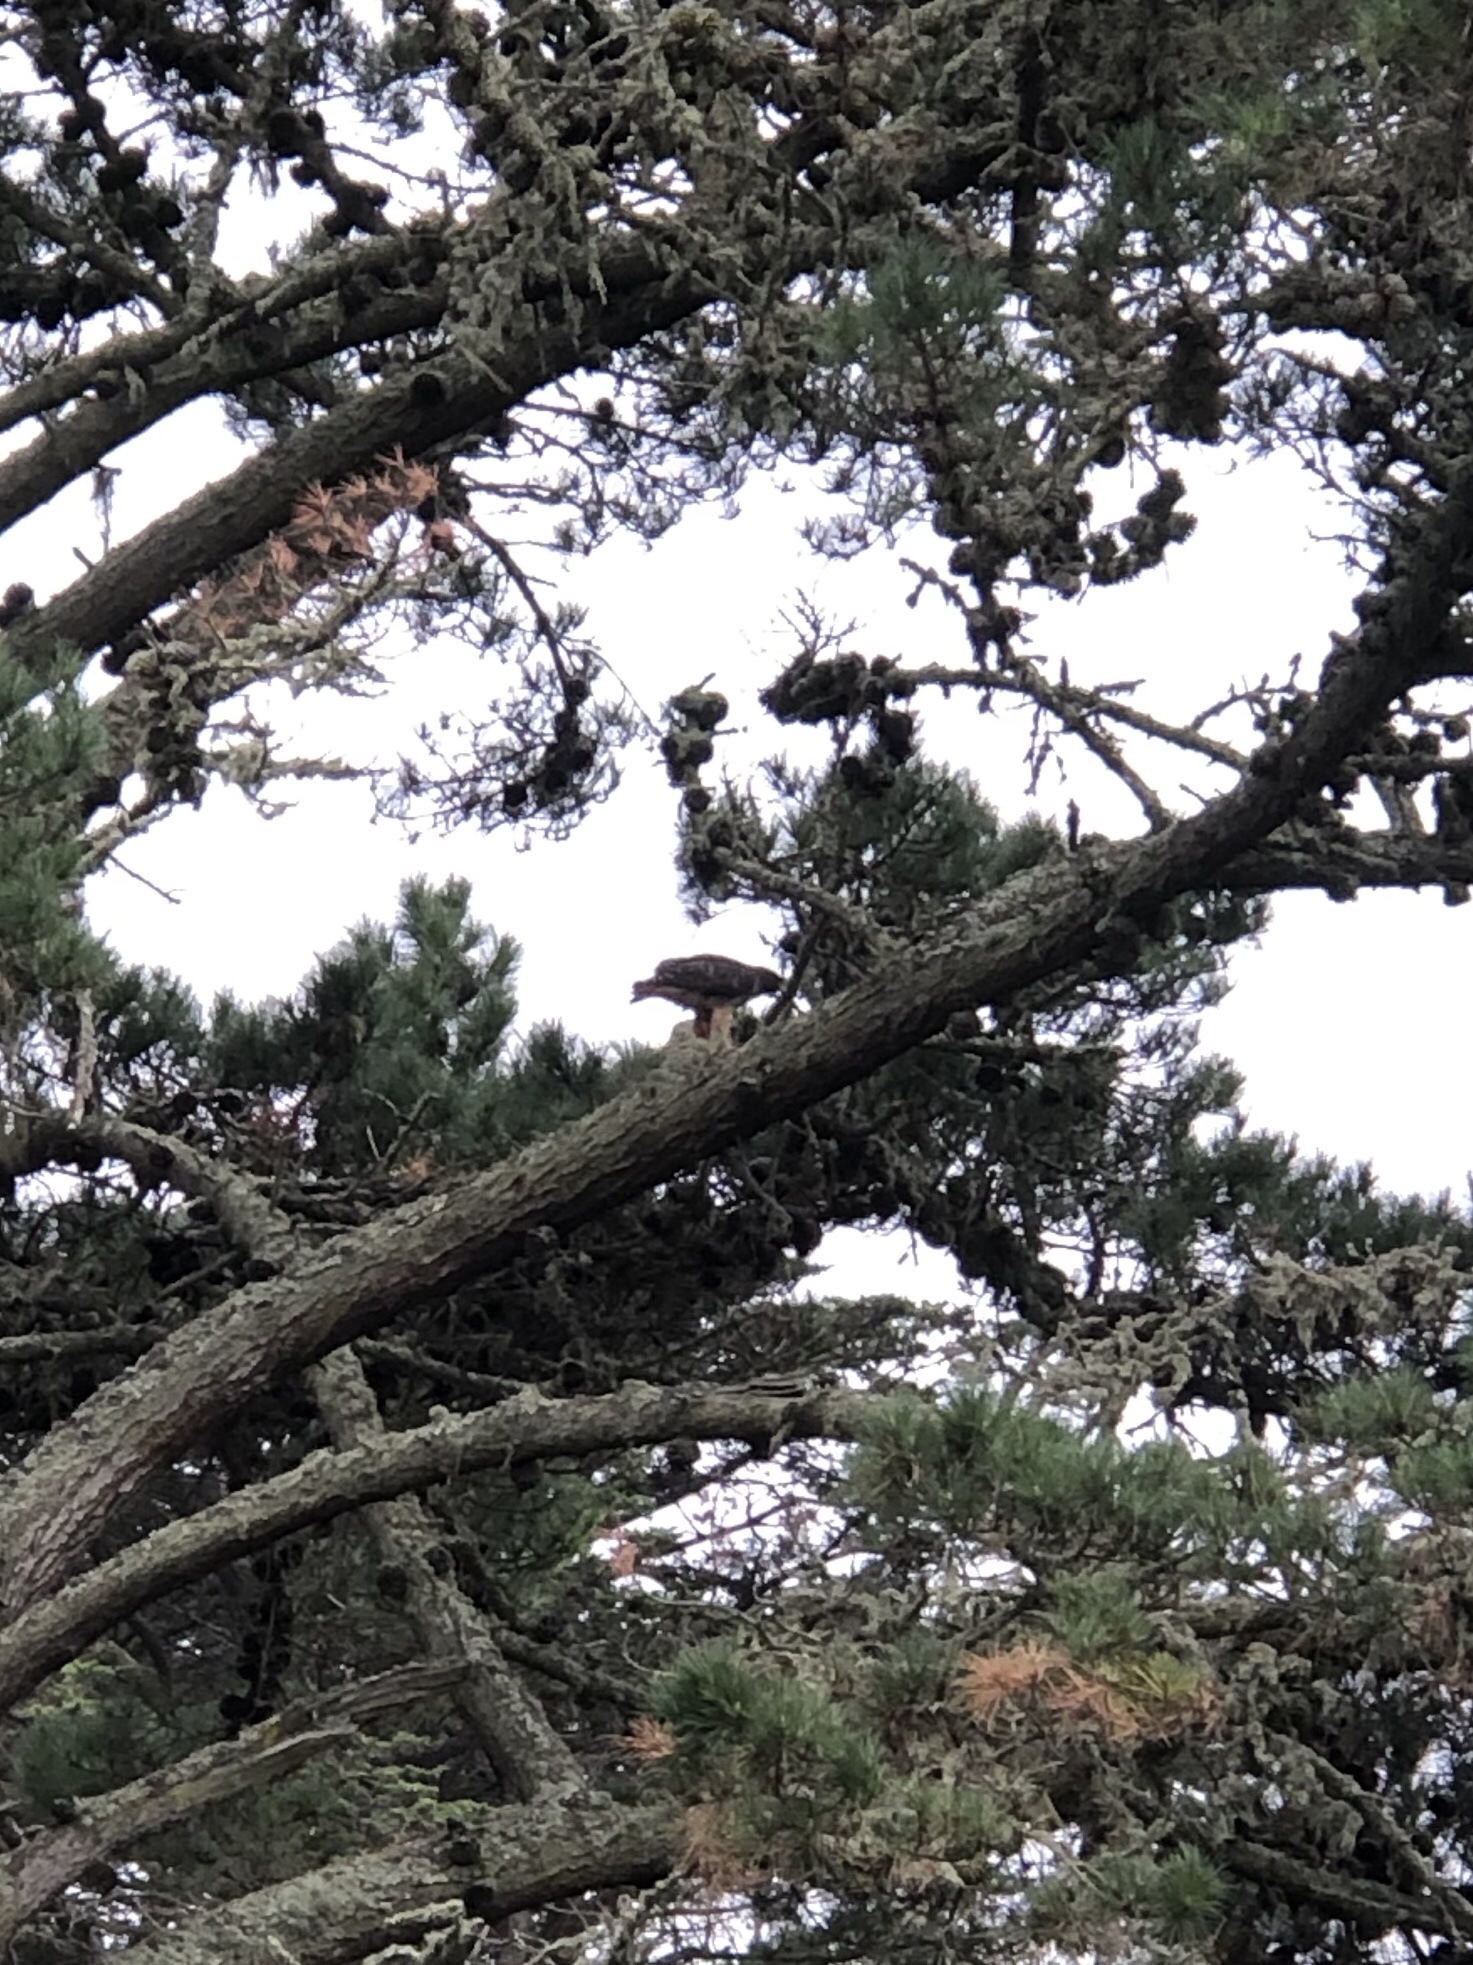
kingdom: Animalia
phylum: Chordata
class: Aves
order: Accipitriformes
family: Accipitridae
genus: Buteo
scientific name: Buteo jamaicensis
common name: Red-tailed hawk
